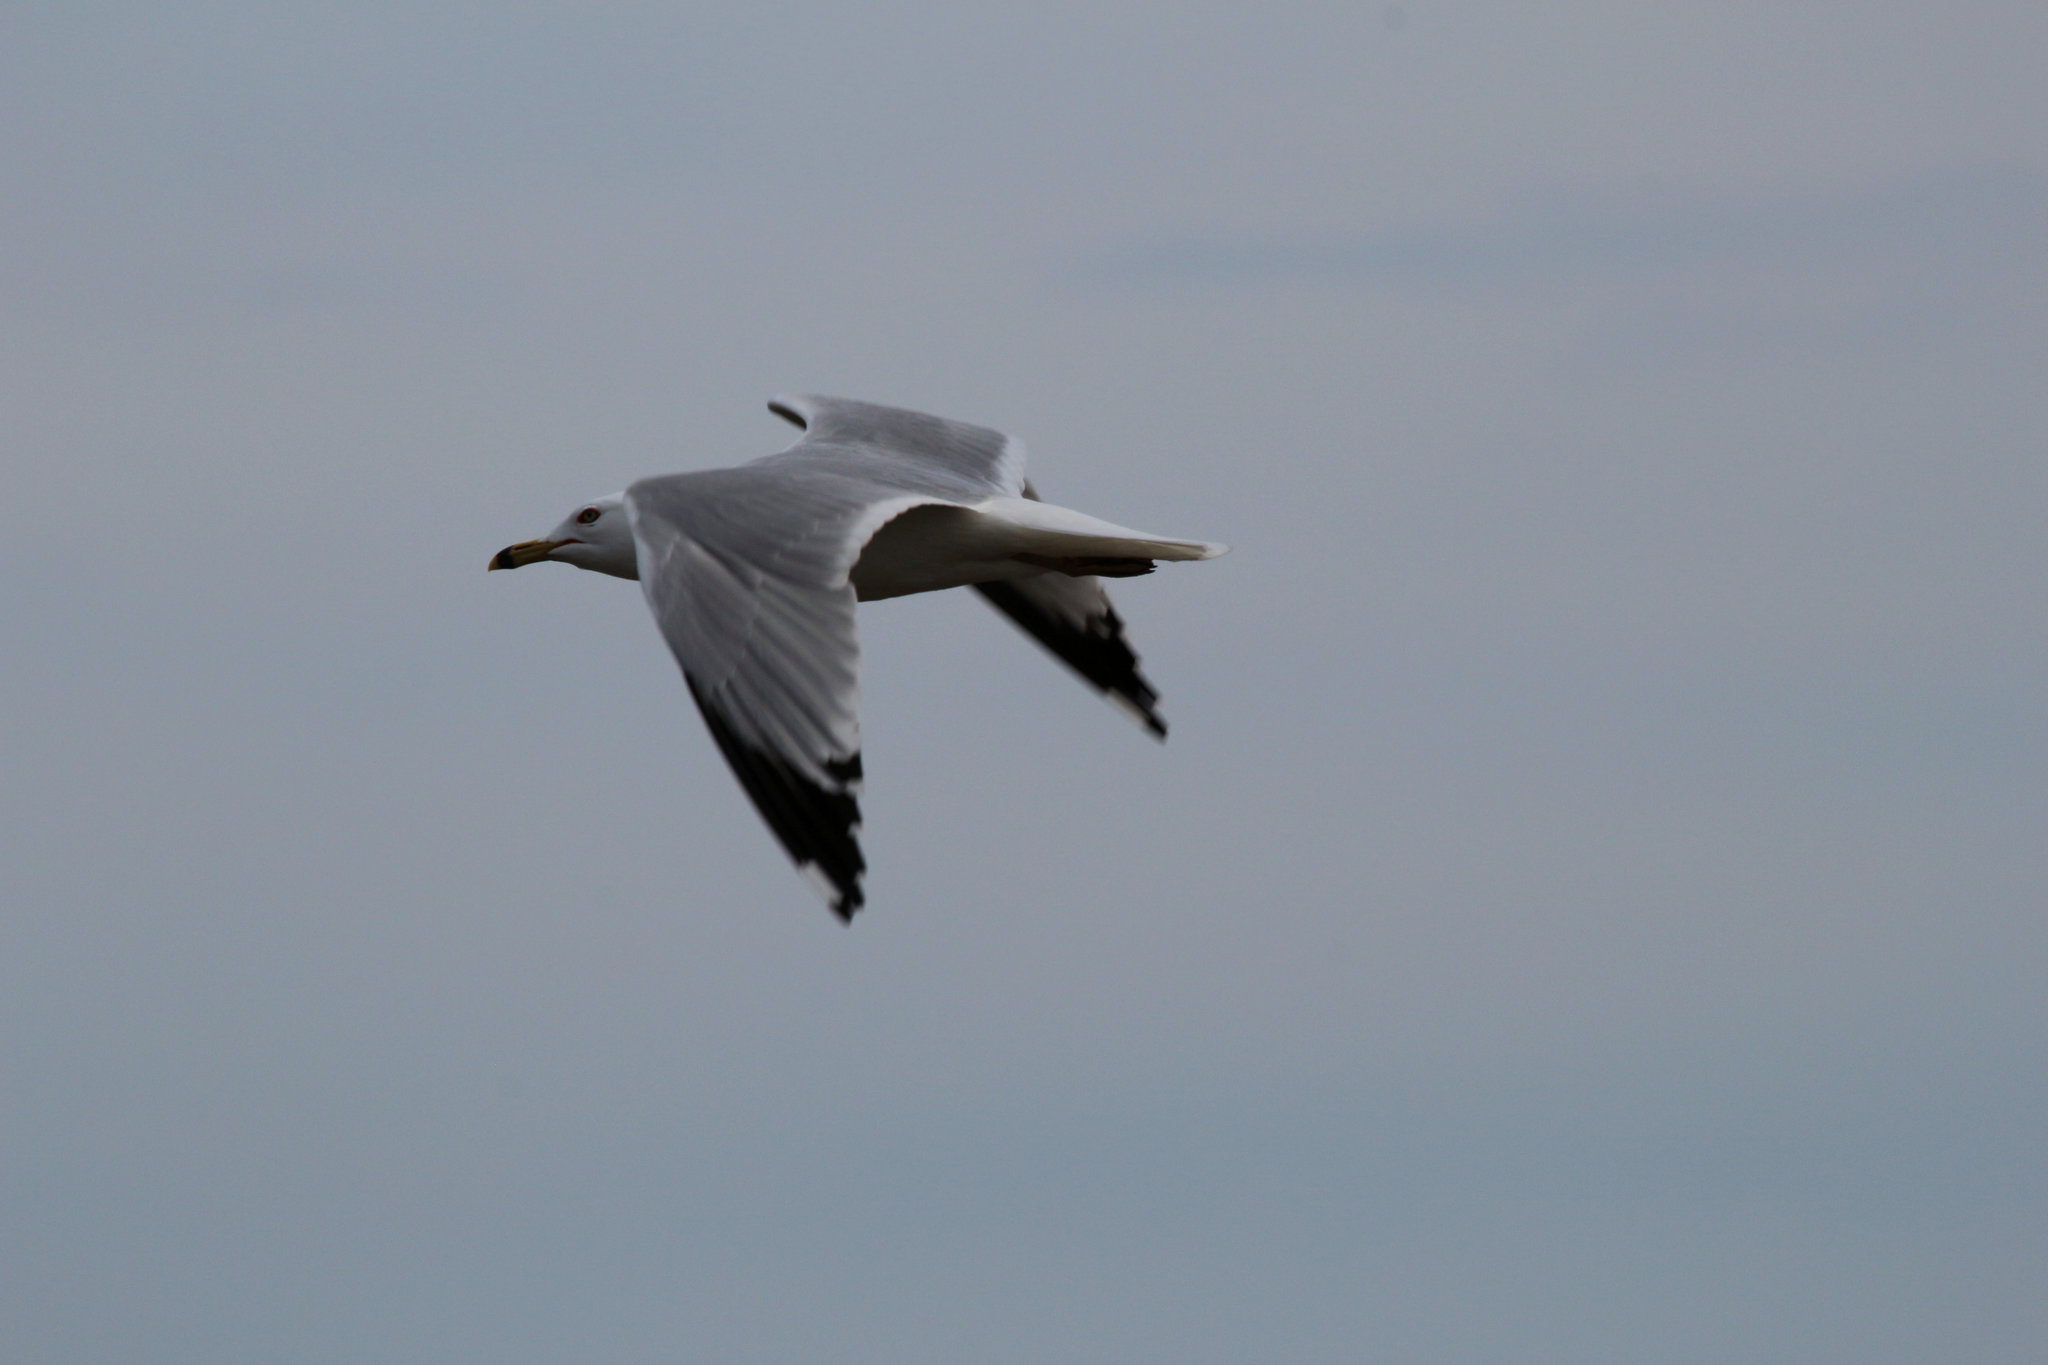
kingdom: Animalia
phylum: Chordata
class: Aves
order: Charadriiformes
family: Laridae
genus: Larus
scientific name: Larus delawarensis
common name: Ring-billed gull
